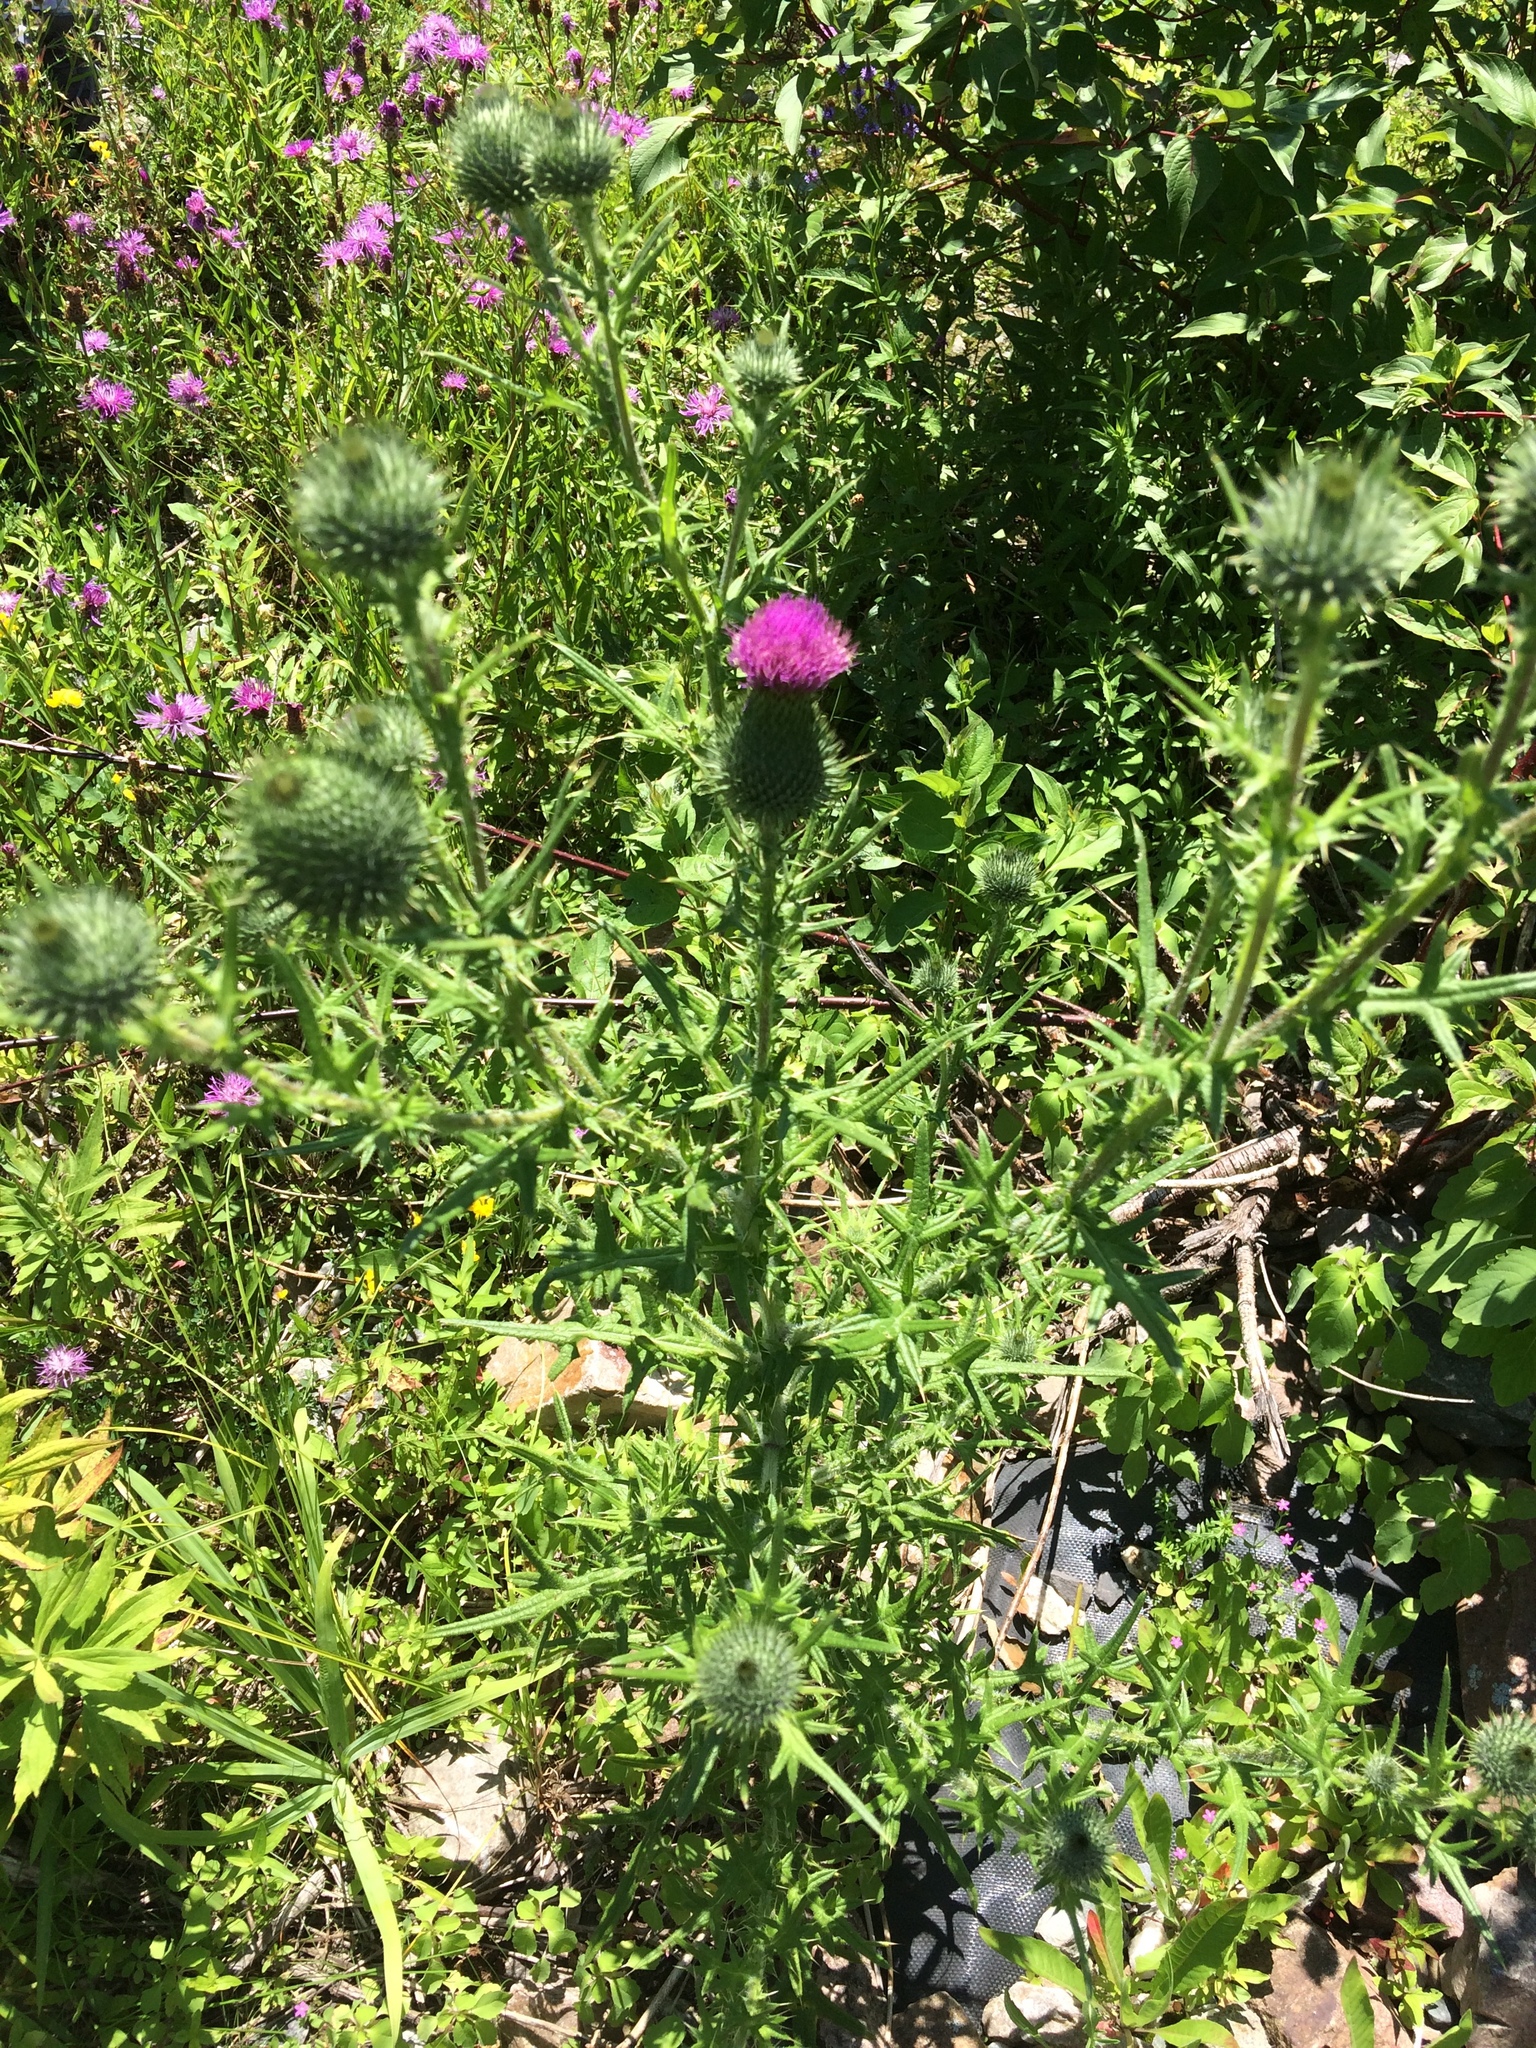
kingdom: Plantae
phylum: Tracheophyta
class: Magnoliopsida
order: Asterales
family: Asteraceae
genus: Cirsium
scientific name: Cirsium vulgare
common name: Bull thistle
